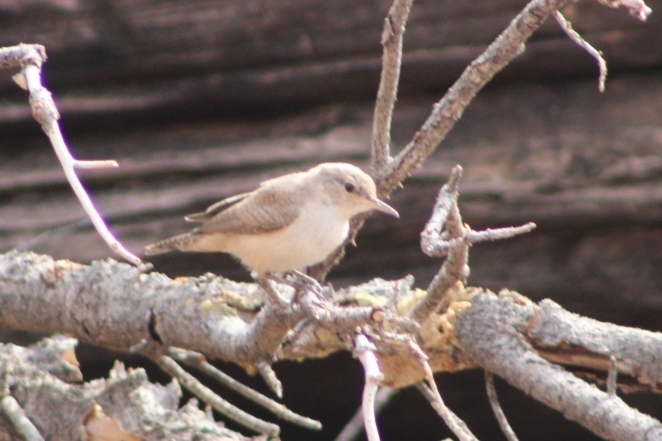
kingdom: Animalia
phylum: Chordata
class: Aves
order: Passeriformes
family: Troglodytidae
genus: Salpinctes
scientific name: Salpinctes obsoletus
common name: Rock wren
